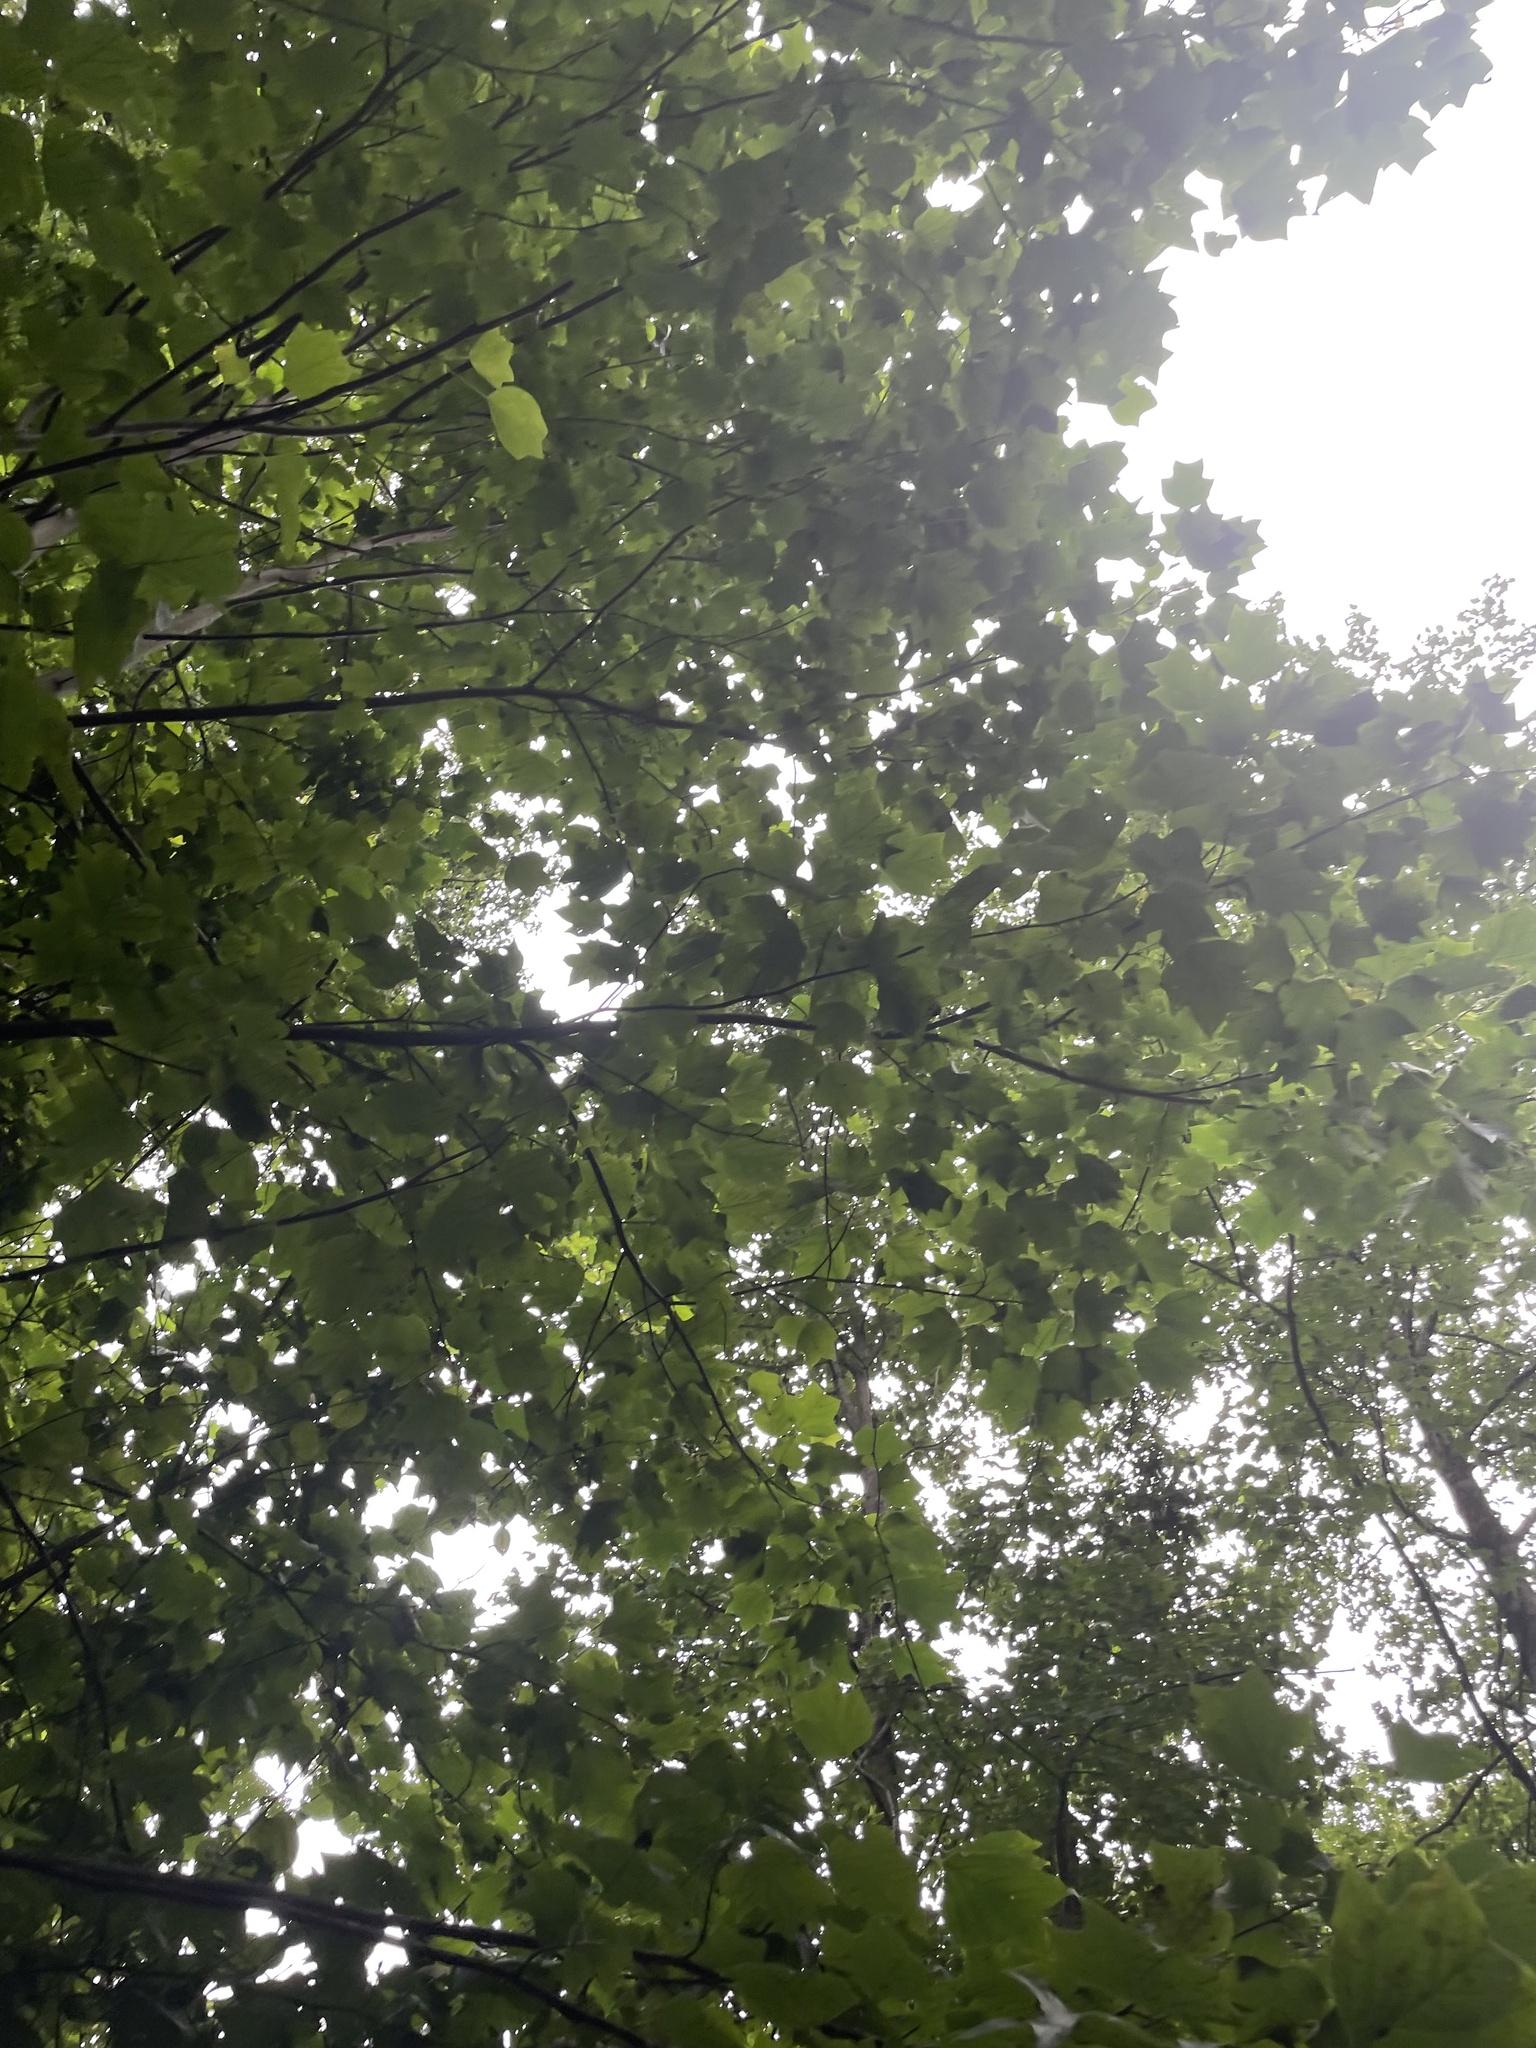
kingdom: Plantae
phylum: Tracheophyta
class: Magnoliopsida
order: Magnoliales
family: Magnoliaceae
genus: Liriodendron
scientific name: Liriodendron tulipifera
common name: Tulip tree
